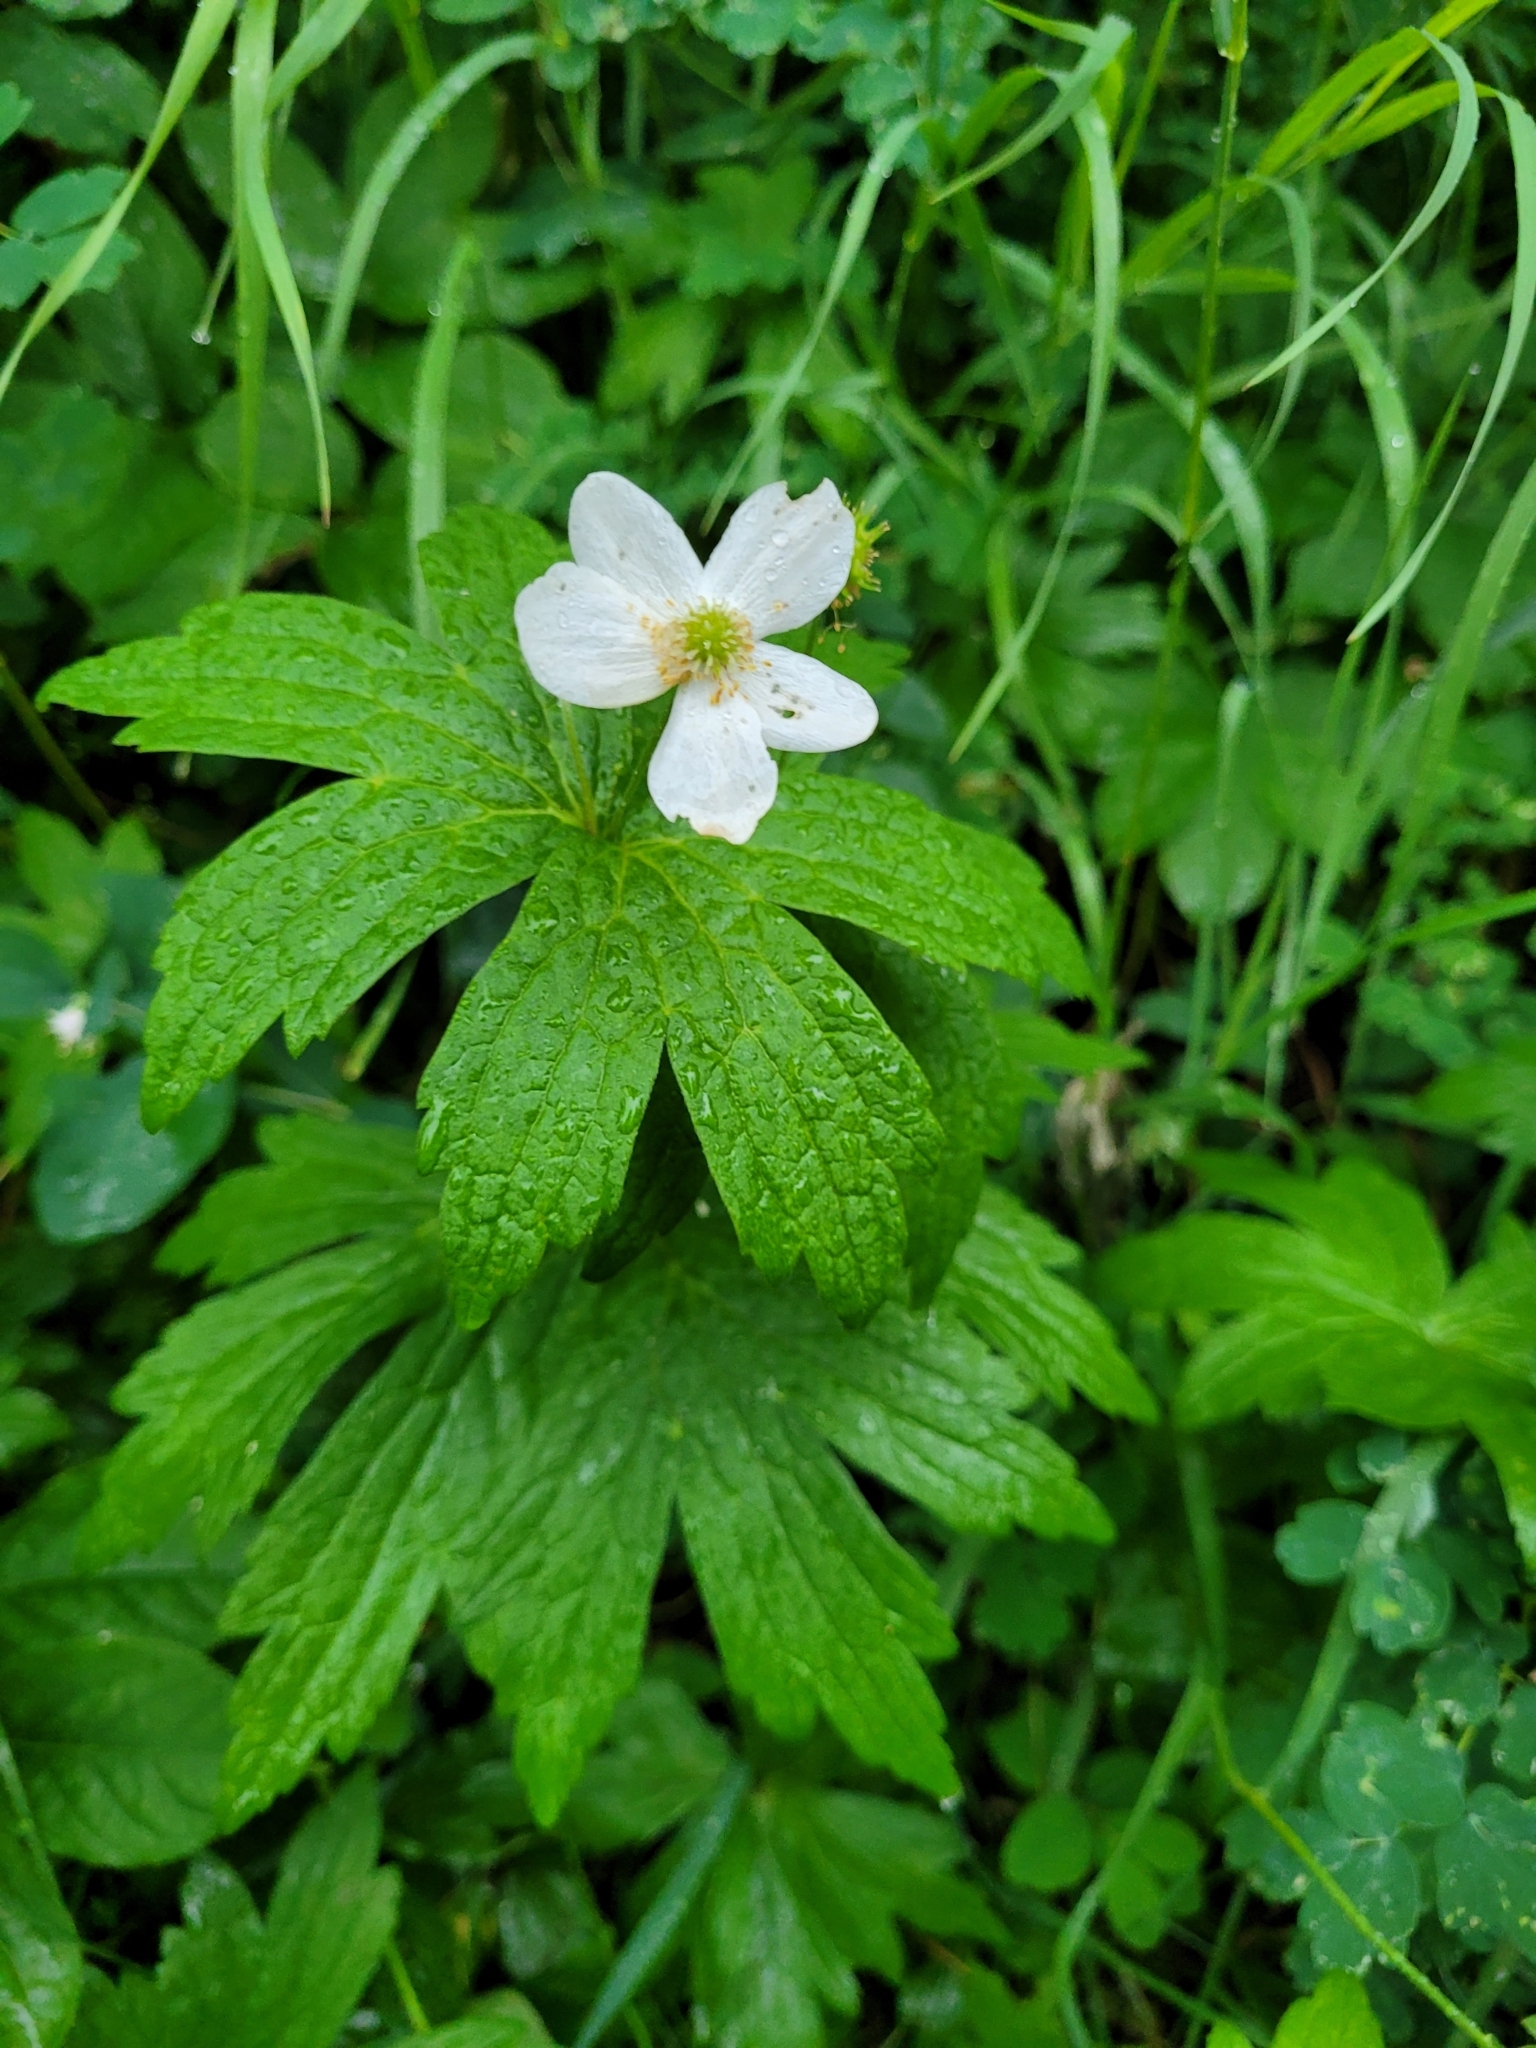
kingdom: Plantae
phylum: Tracheophyta
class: Magnoliopsida
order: Ranunculales
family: Ranunculaceae
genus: Anemonastrum
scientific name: Anemonastrum canadense
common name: Canada anemone
